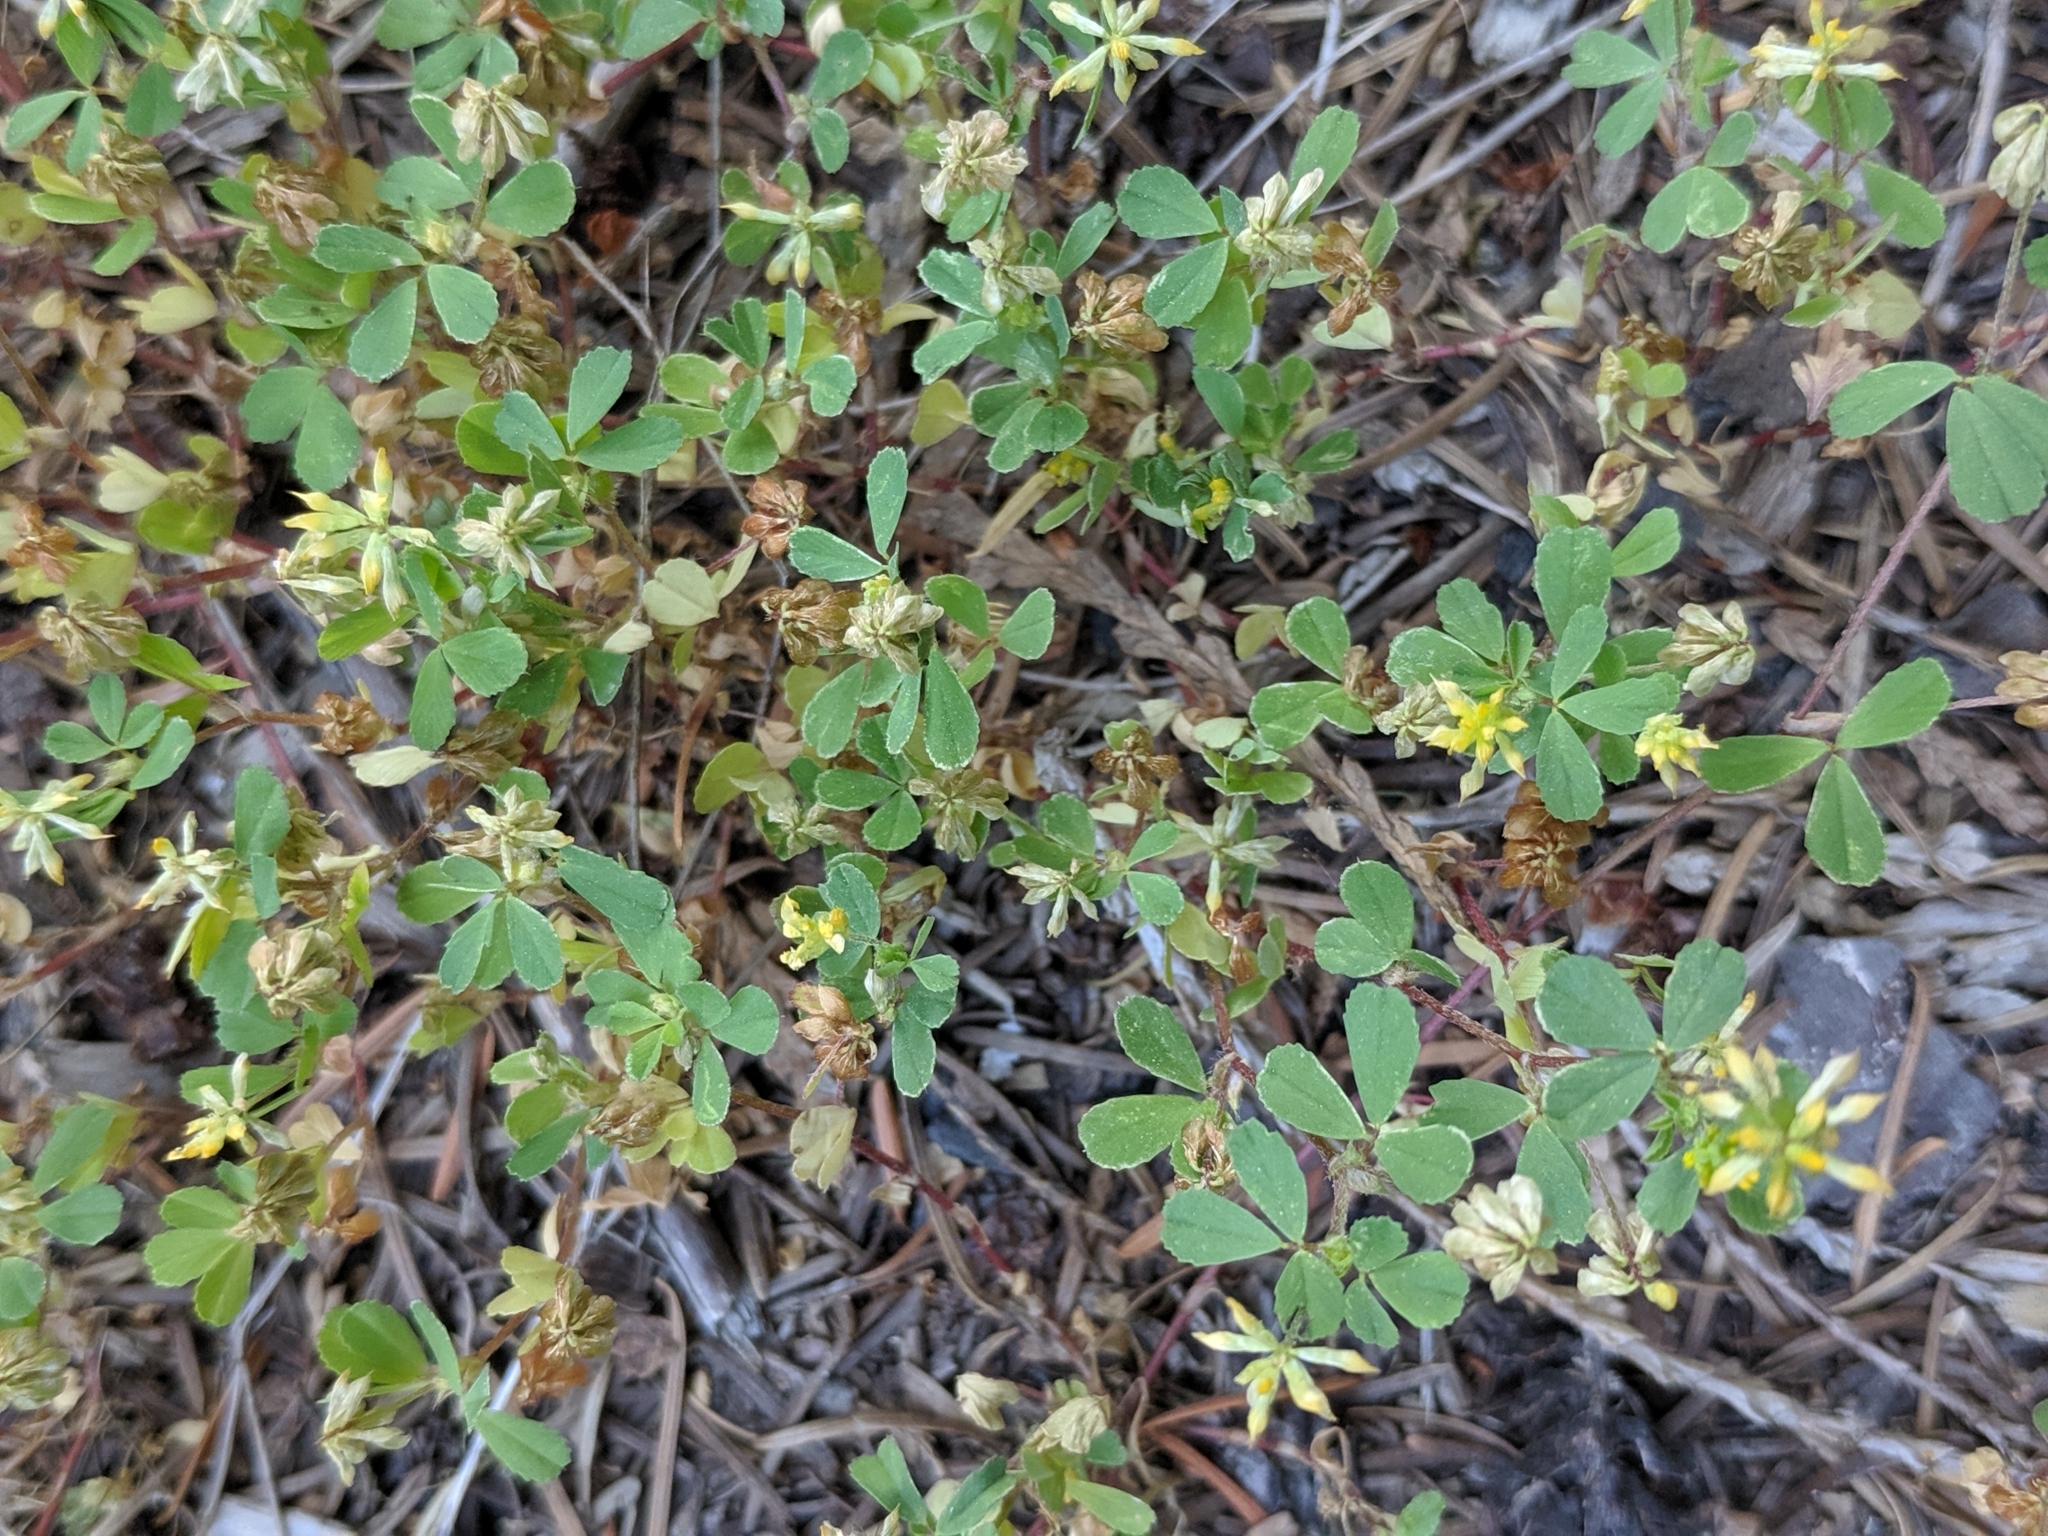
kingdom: Plantae
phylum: Tracheophyta
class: Magnoliopsida
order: Fabales
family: Fabaceae
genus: Trifolium
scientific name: Trifolium dubium
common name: Suckling clover
